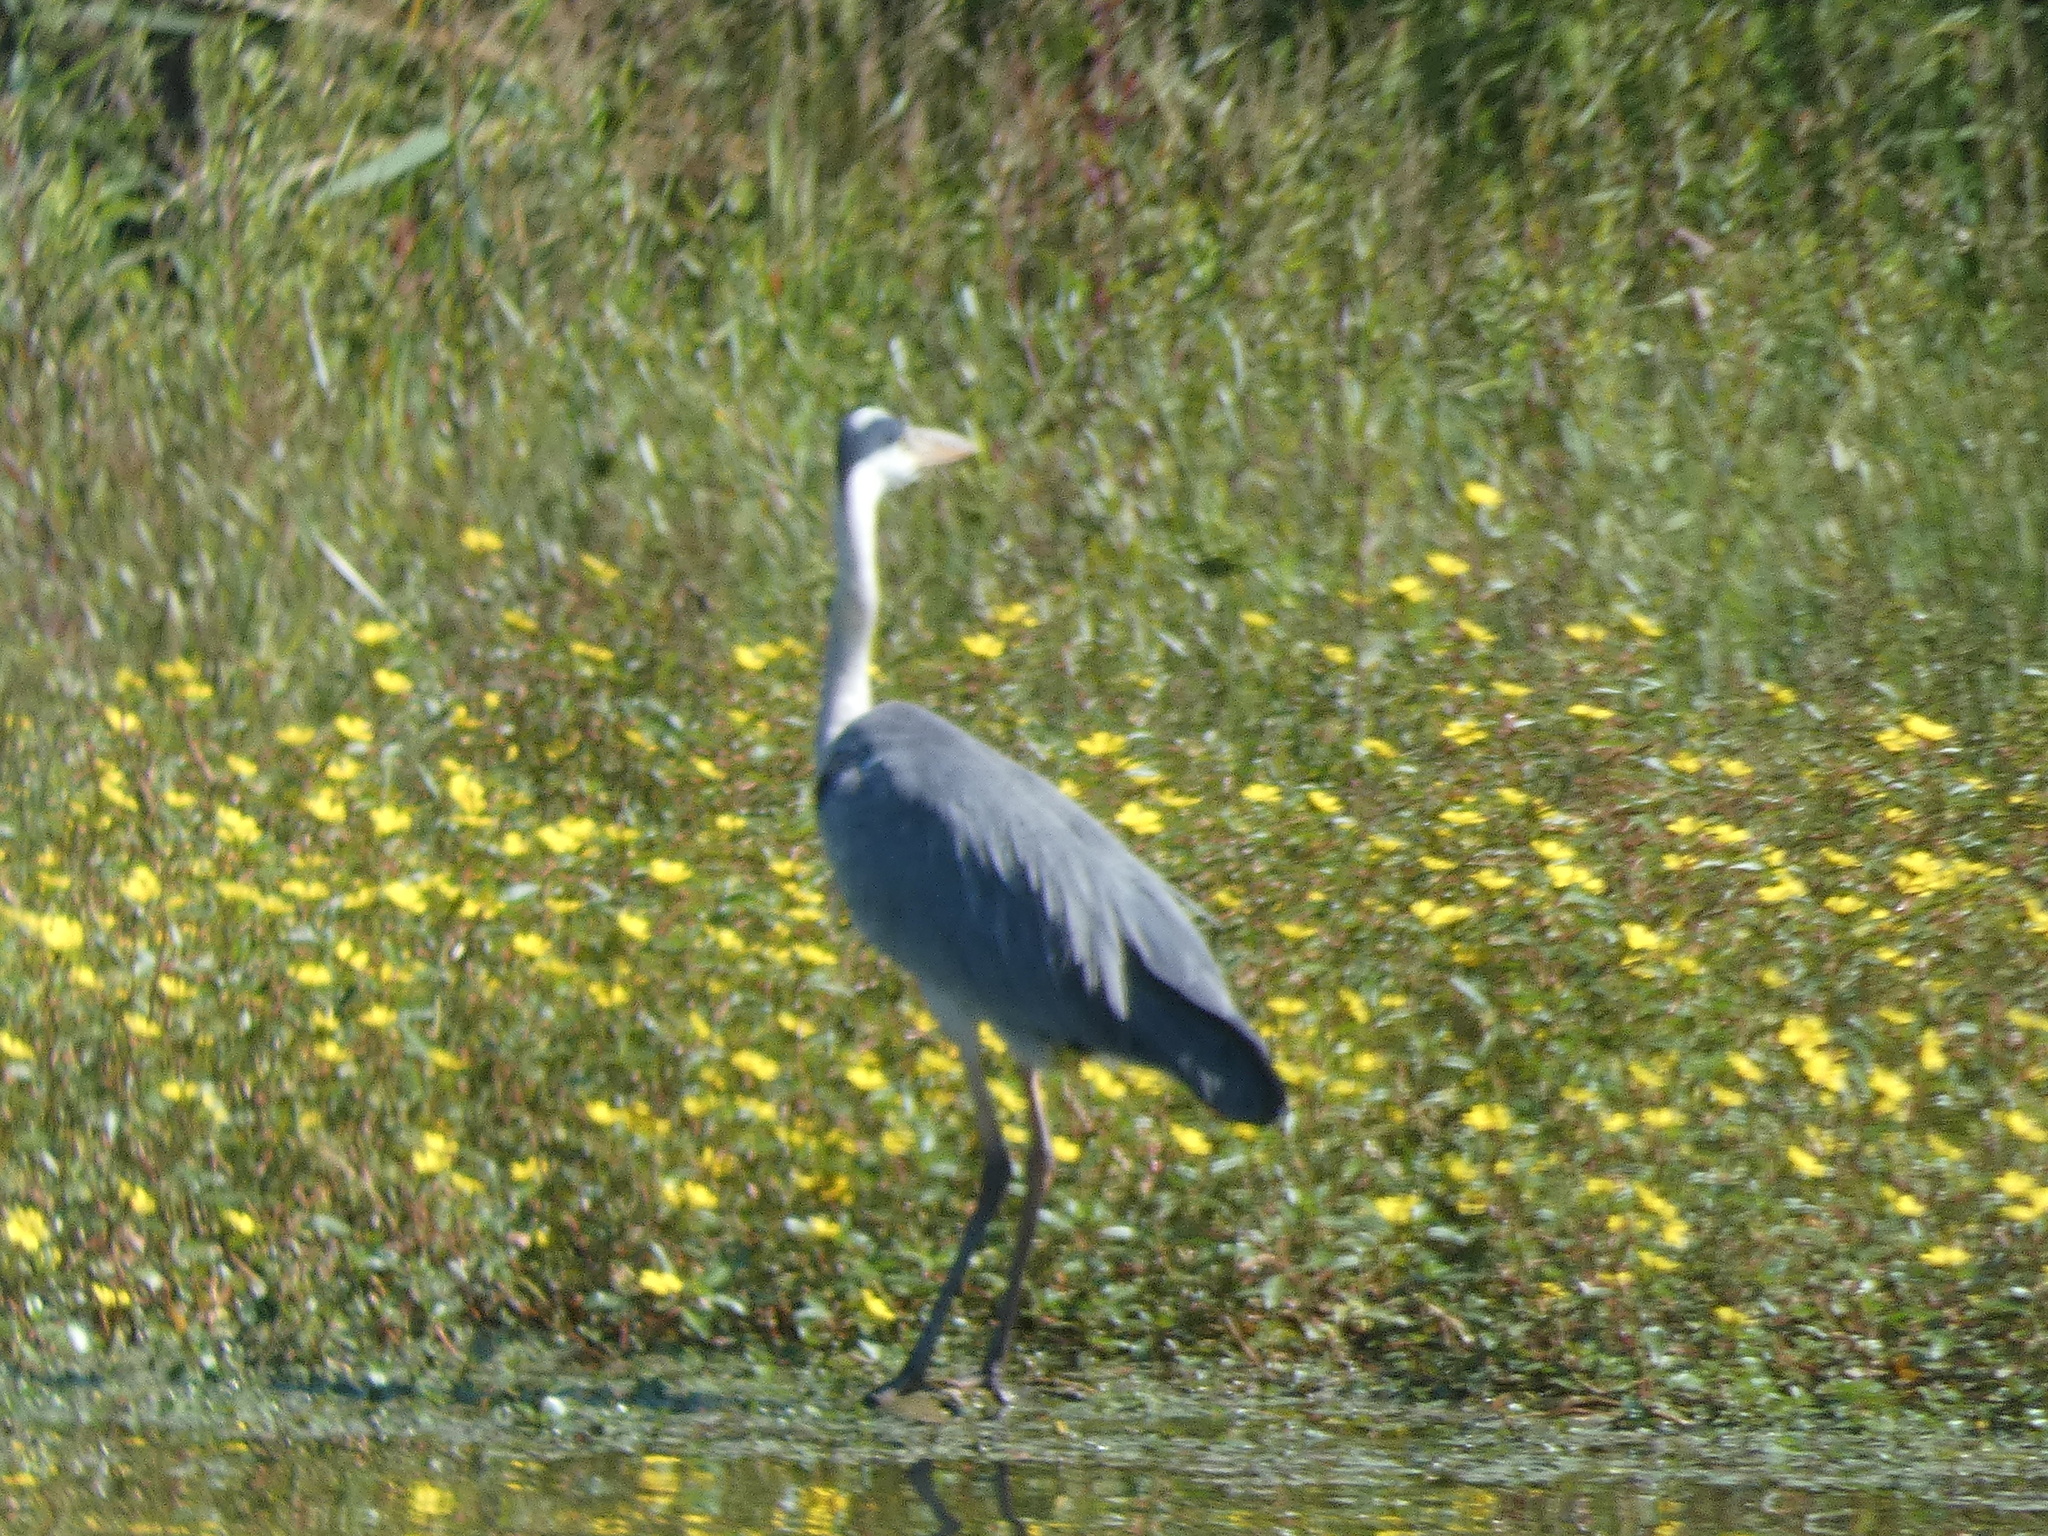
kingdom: Animalia
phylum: Chordata
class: Aves
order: Pelecaniformes
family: Ardeidae
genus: Ardea
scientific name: Ardea cinerea
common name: Grey heron
